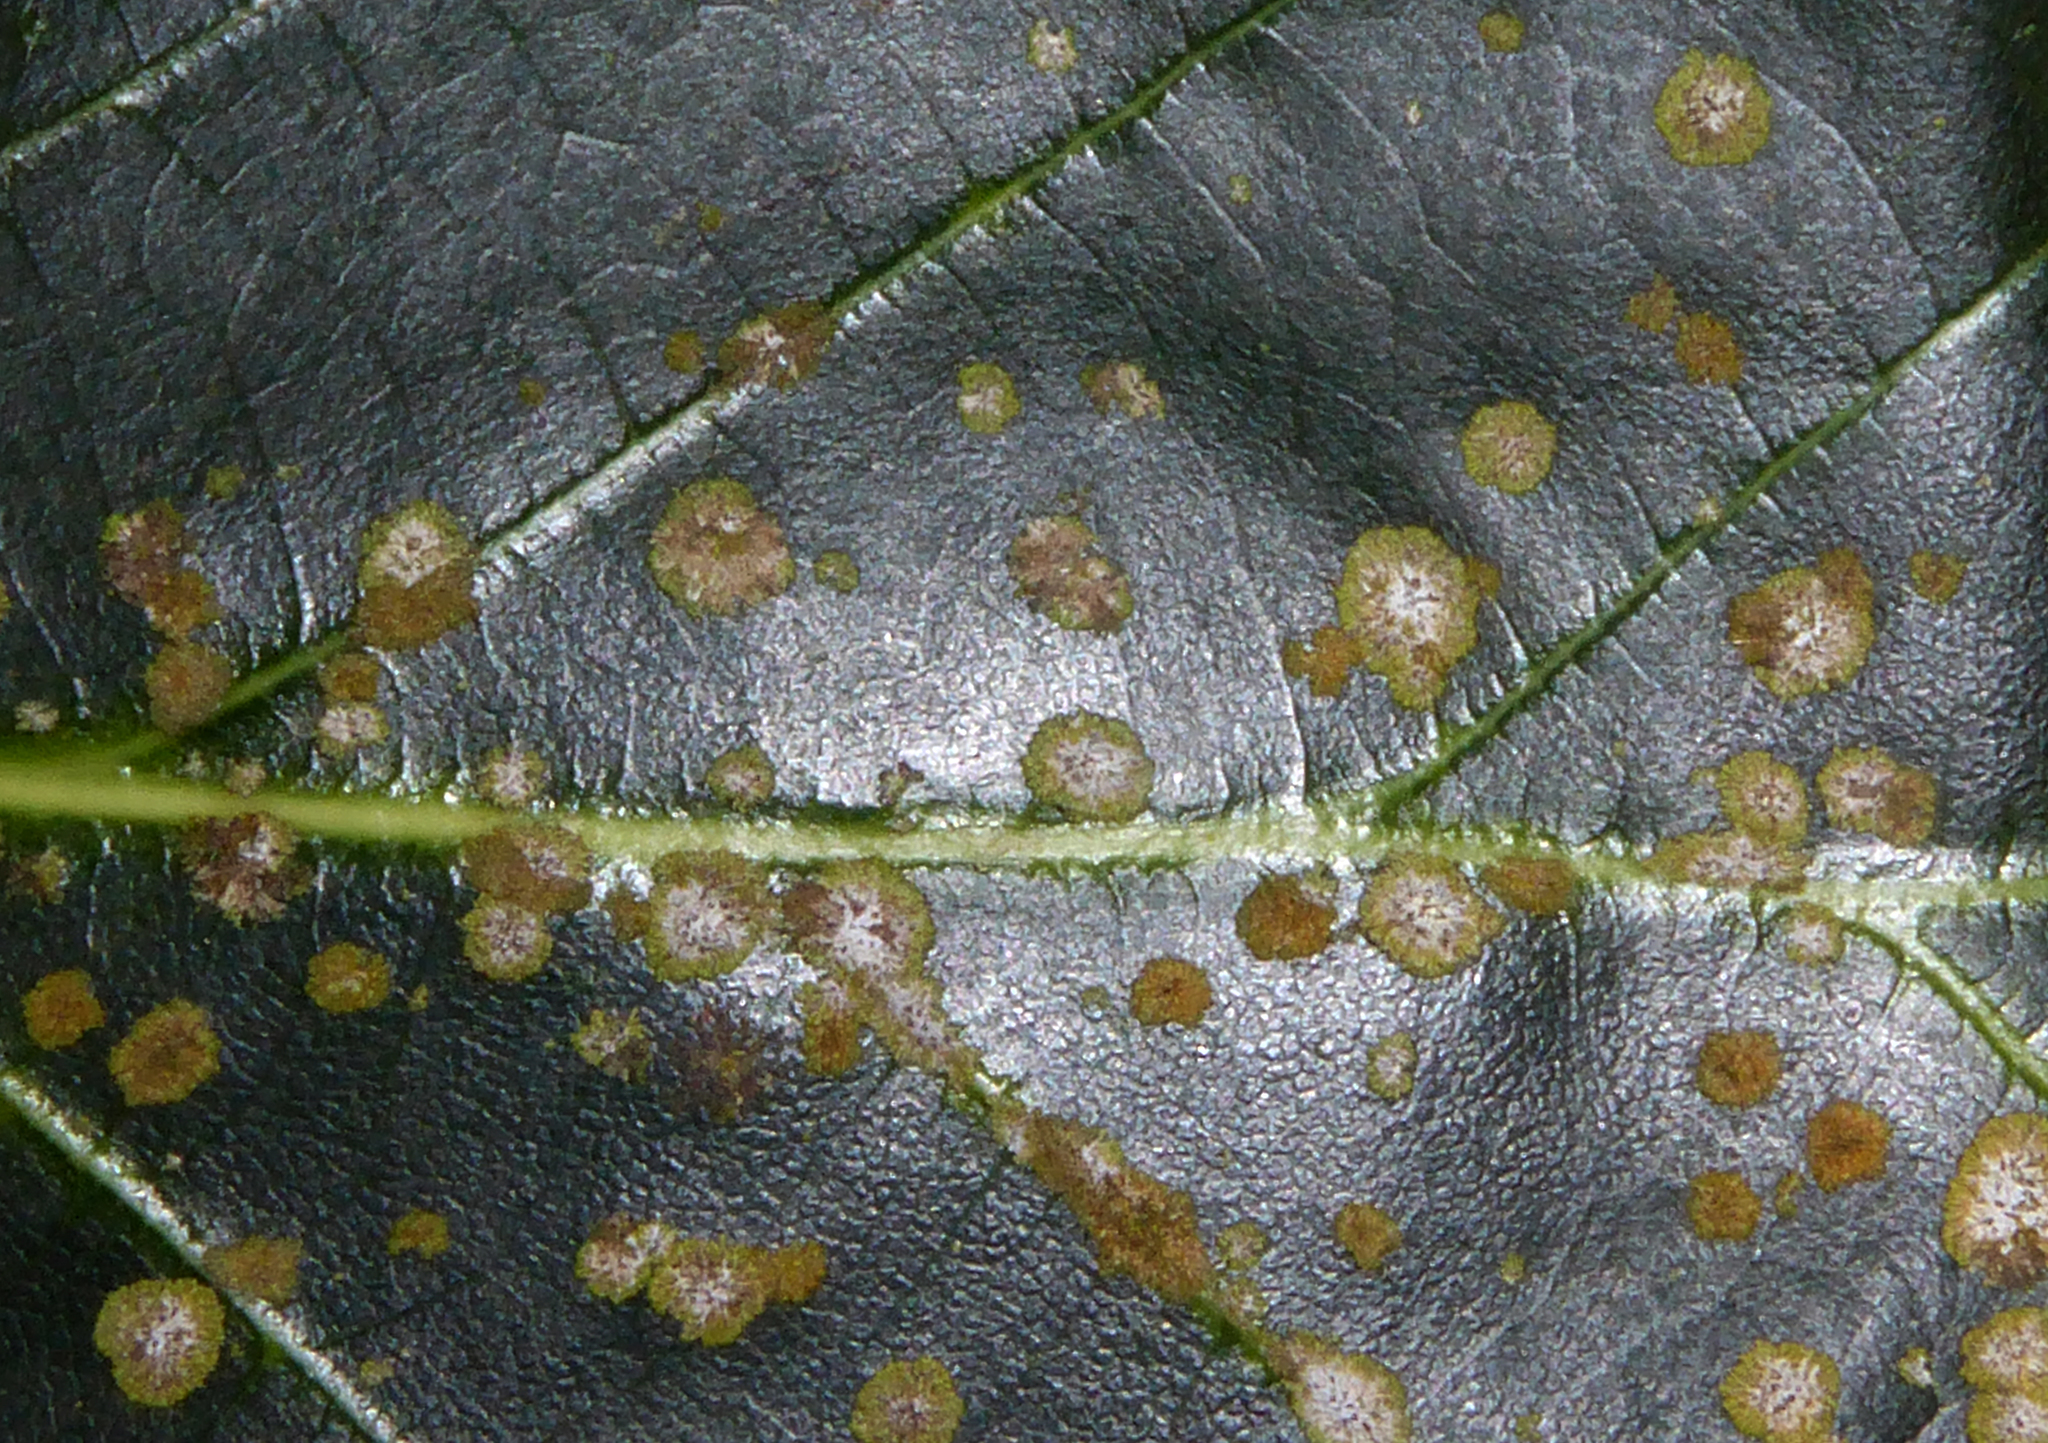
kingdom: Fungi
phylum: Ascomycota
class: Dothideomycetes
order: Strigulales
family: Strigulaceae
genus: Phyllocharis
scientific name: Phyllocharis orbicularis
